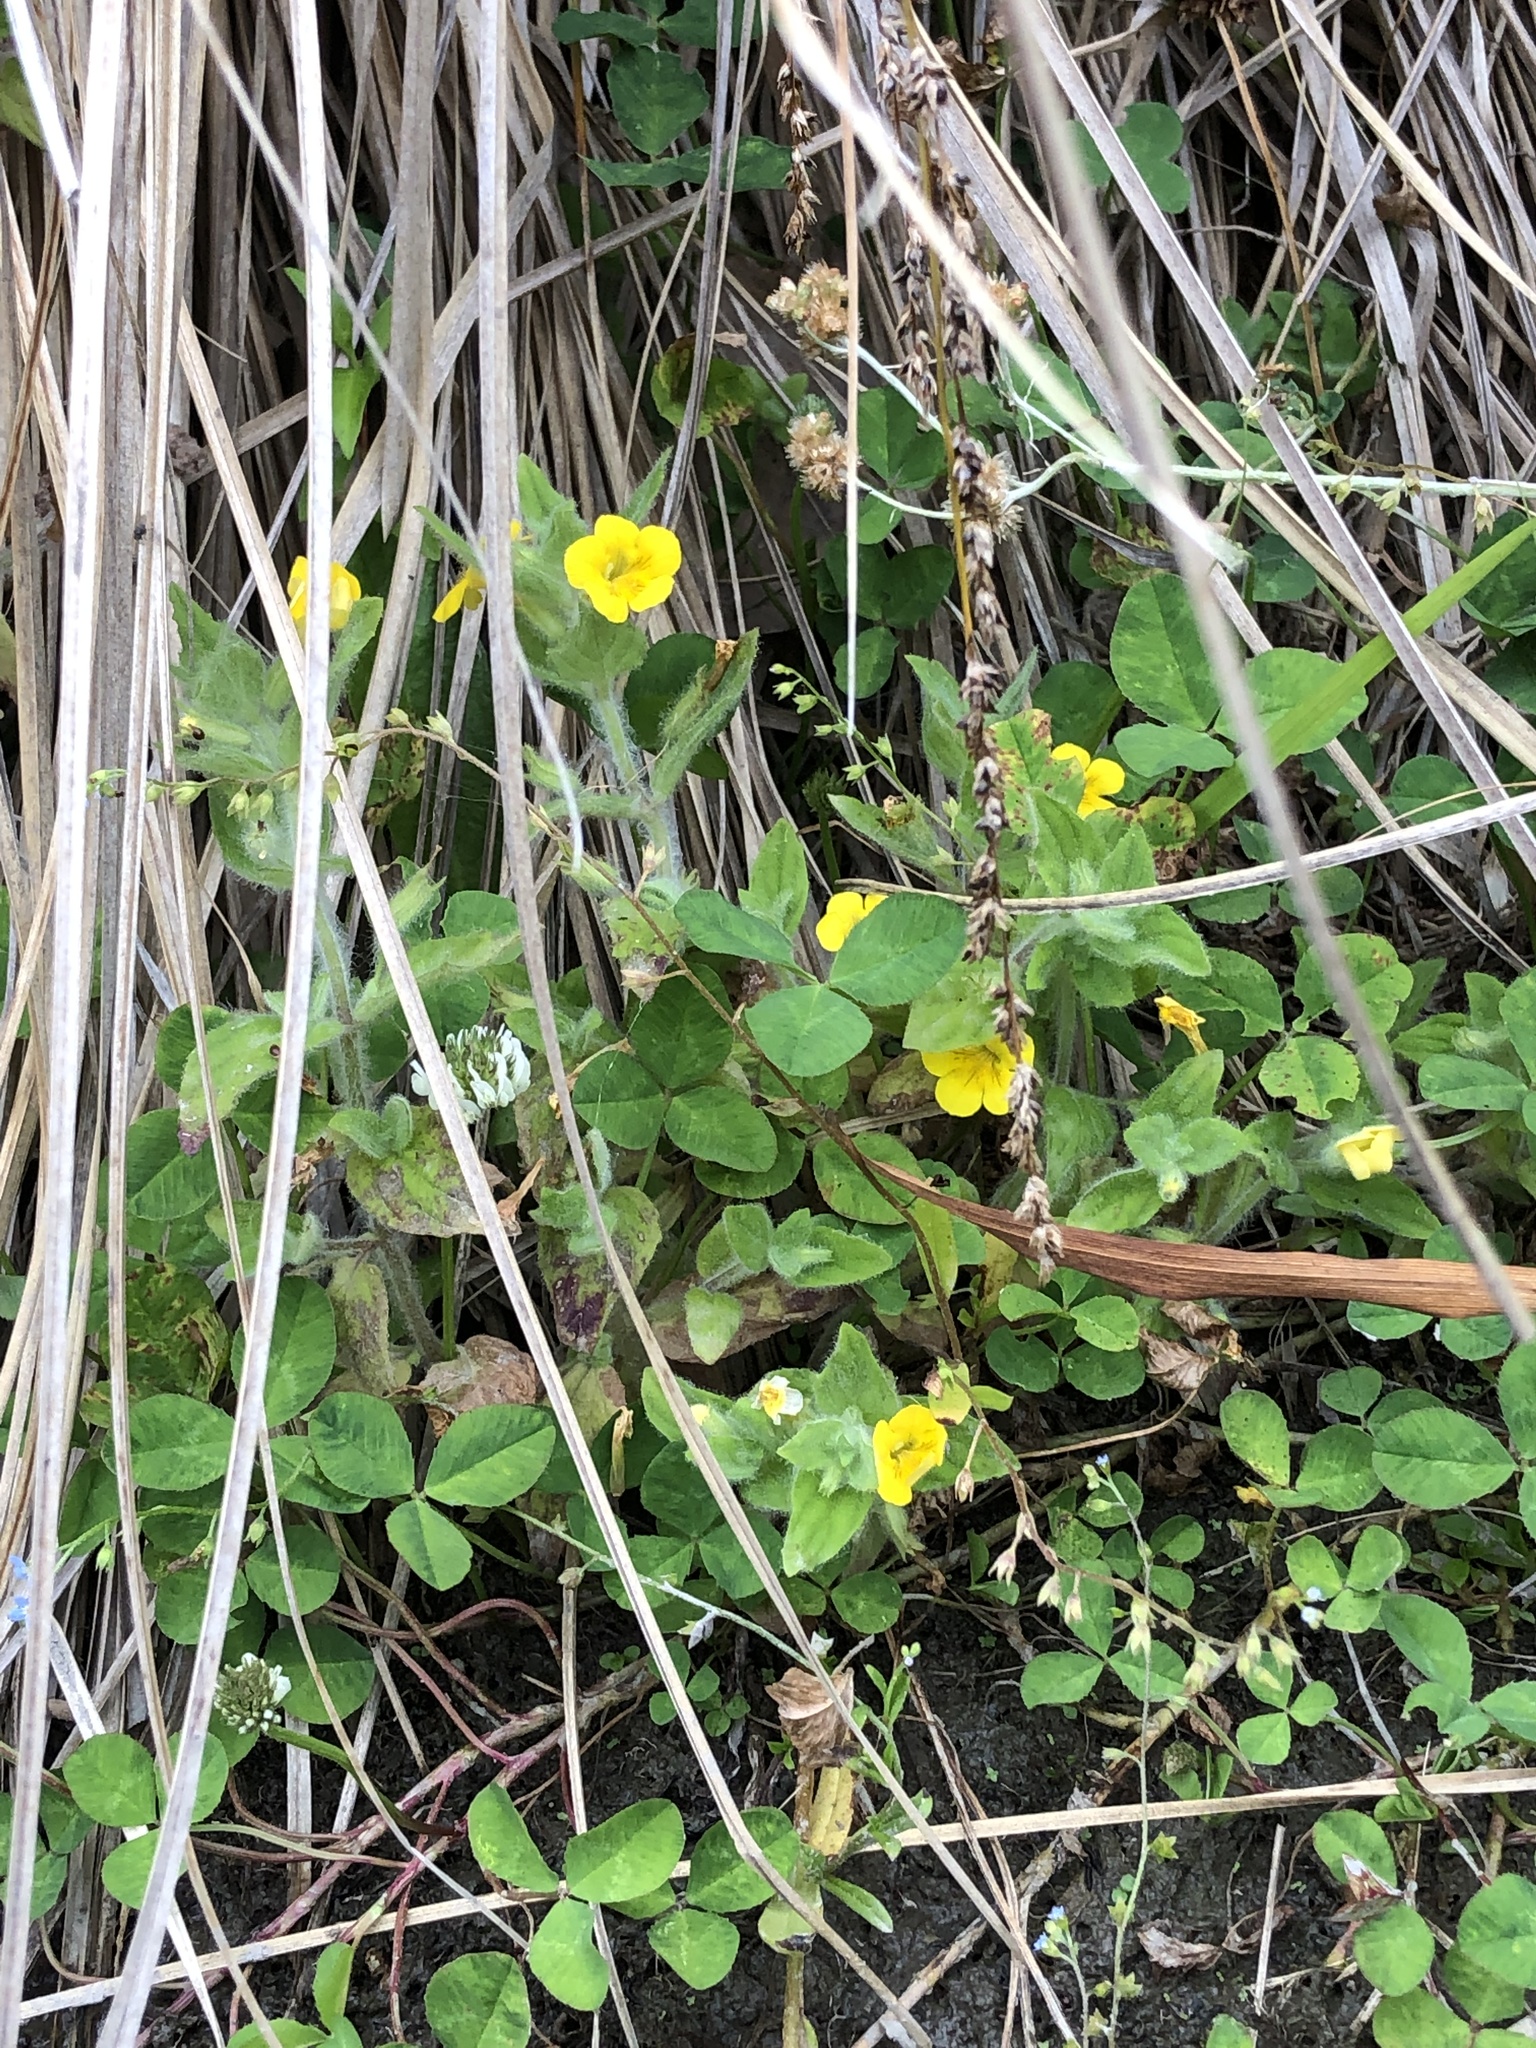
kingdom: Plantae
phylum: Tracheophyta
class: Magnoliopsida
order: Lamiales
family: Phrymaceae
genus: Erythranthe
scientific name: Erythranthe moschata
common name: Muskflower
